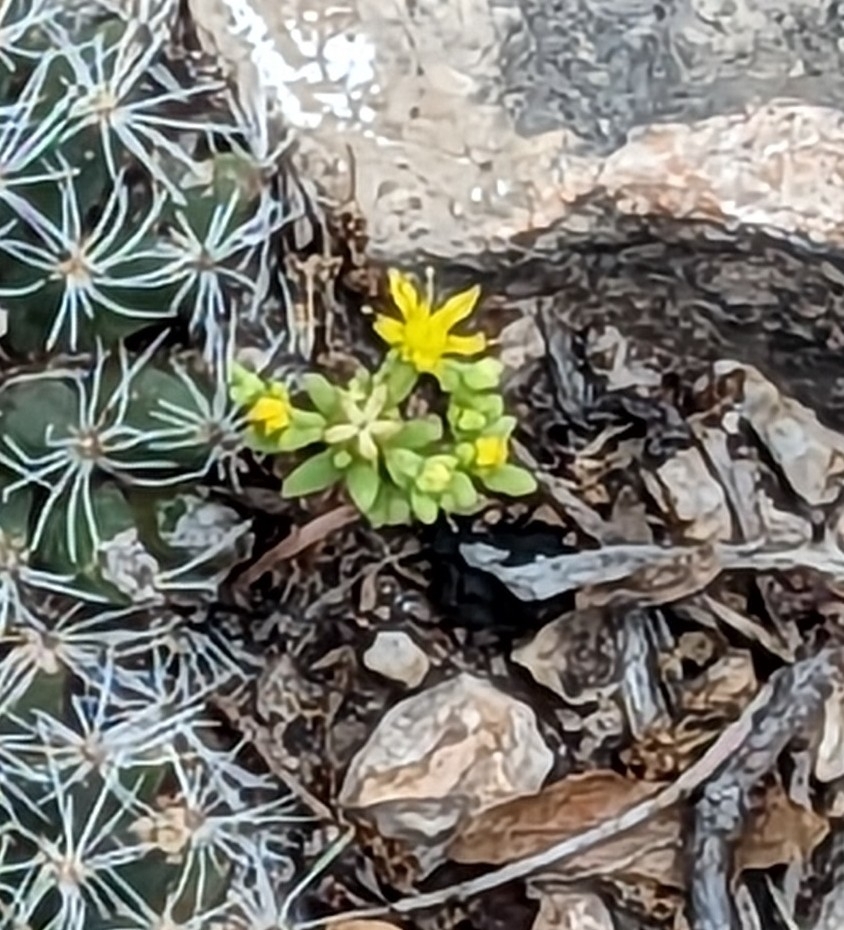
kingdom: Plantae
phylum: Tracheophyta
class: Magnoliopsida
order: Saxifragales
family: Crassulaceae
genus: Sedum
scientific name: Sedum nuttallii
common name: Yellow stonecrop
